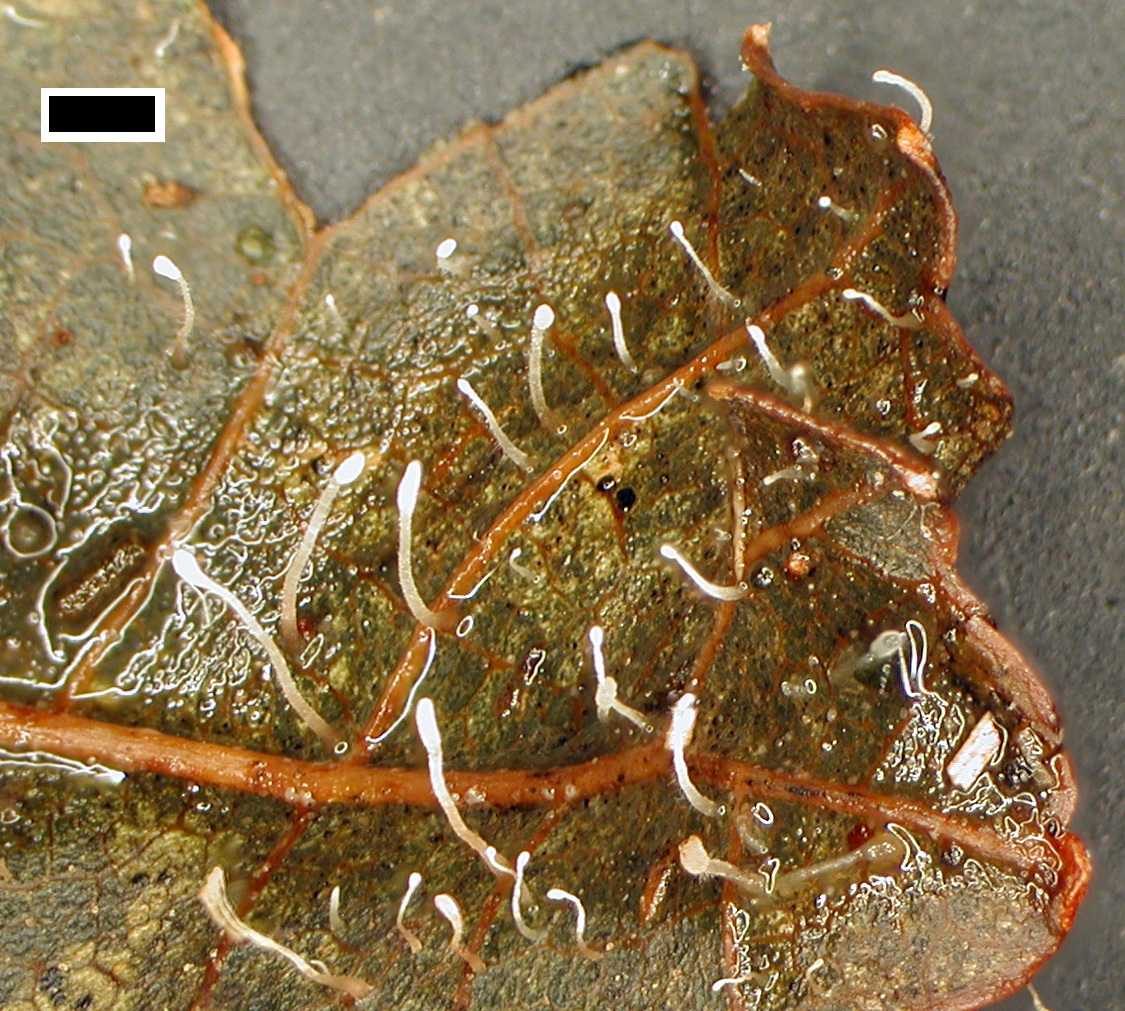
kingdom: Fungi
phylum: Basidiomycota
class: Agaricomycetes
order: Agaricales
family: Typhulaceae
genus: Typhula
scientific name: Typhula setipes
